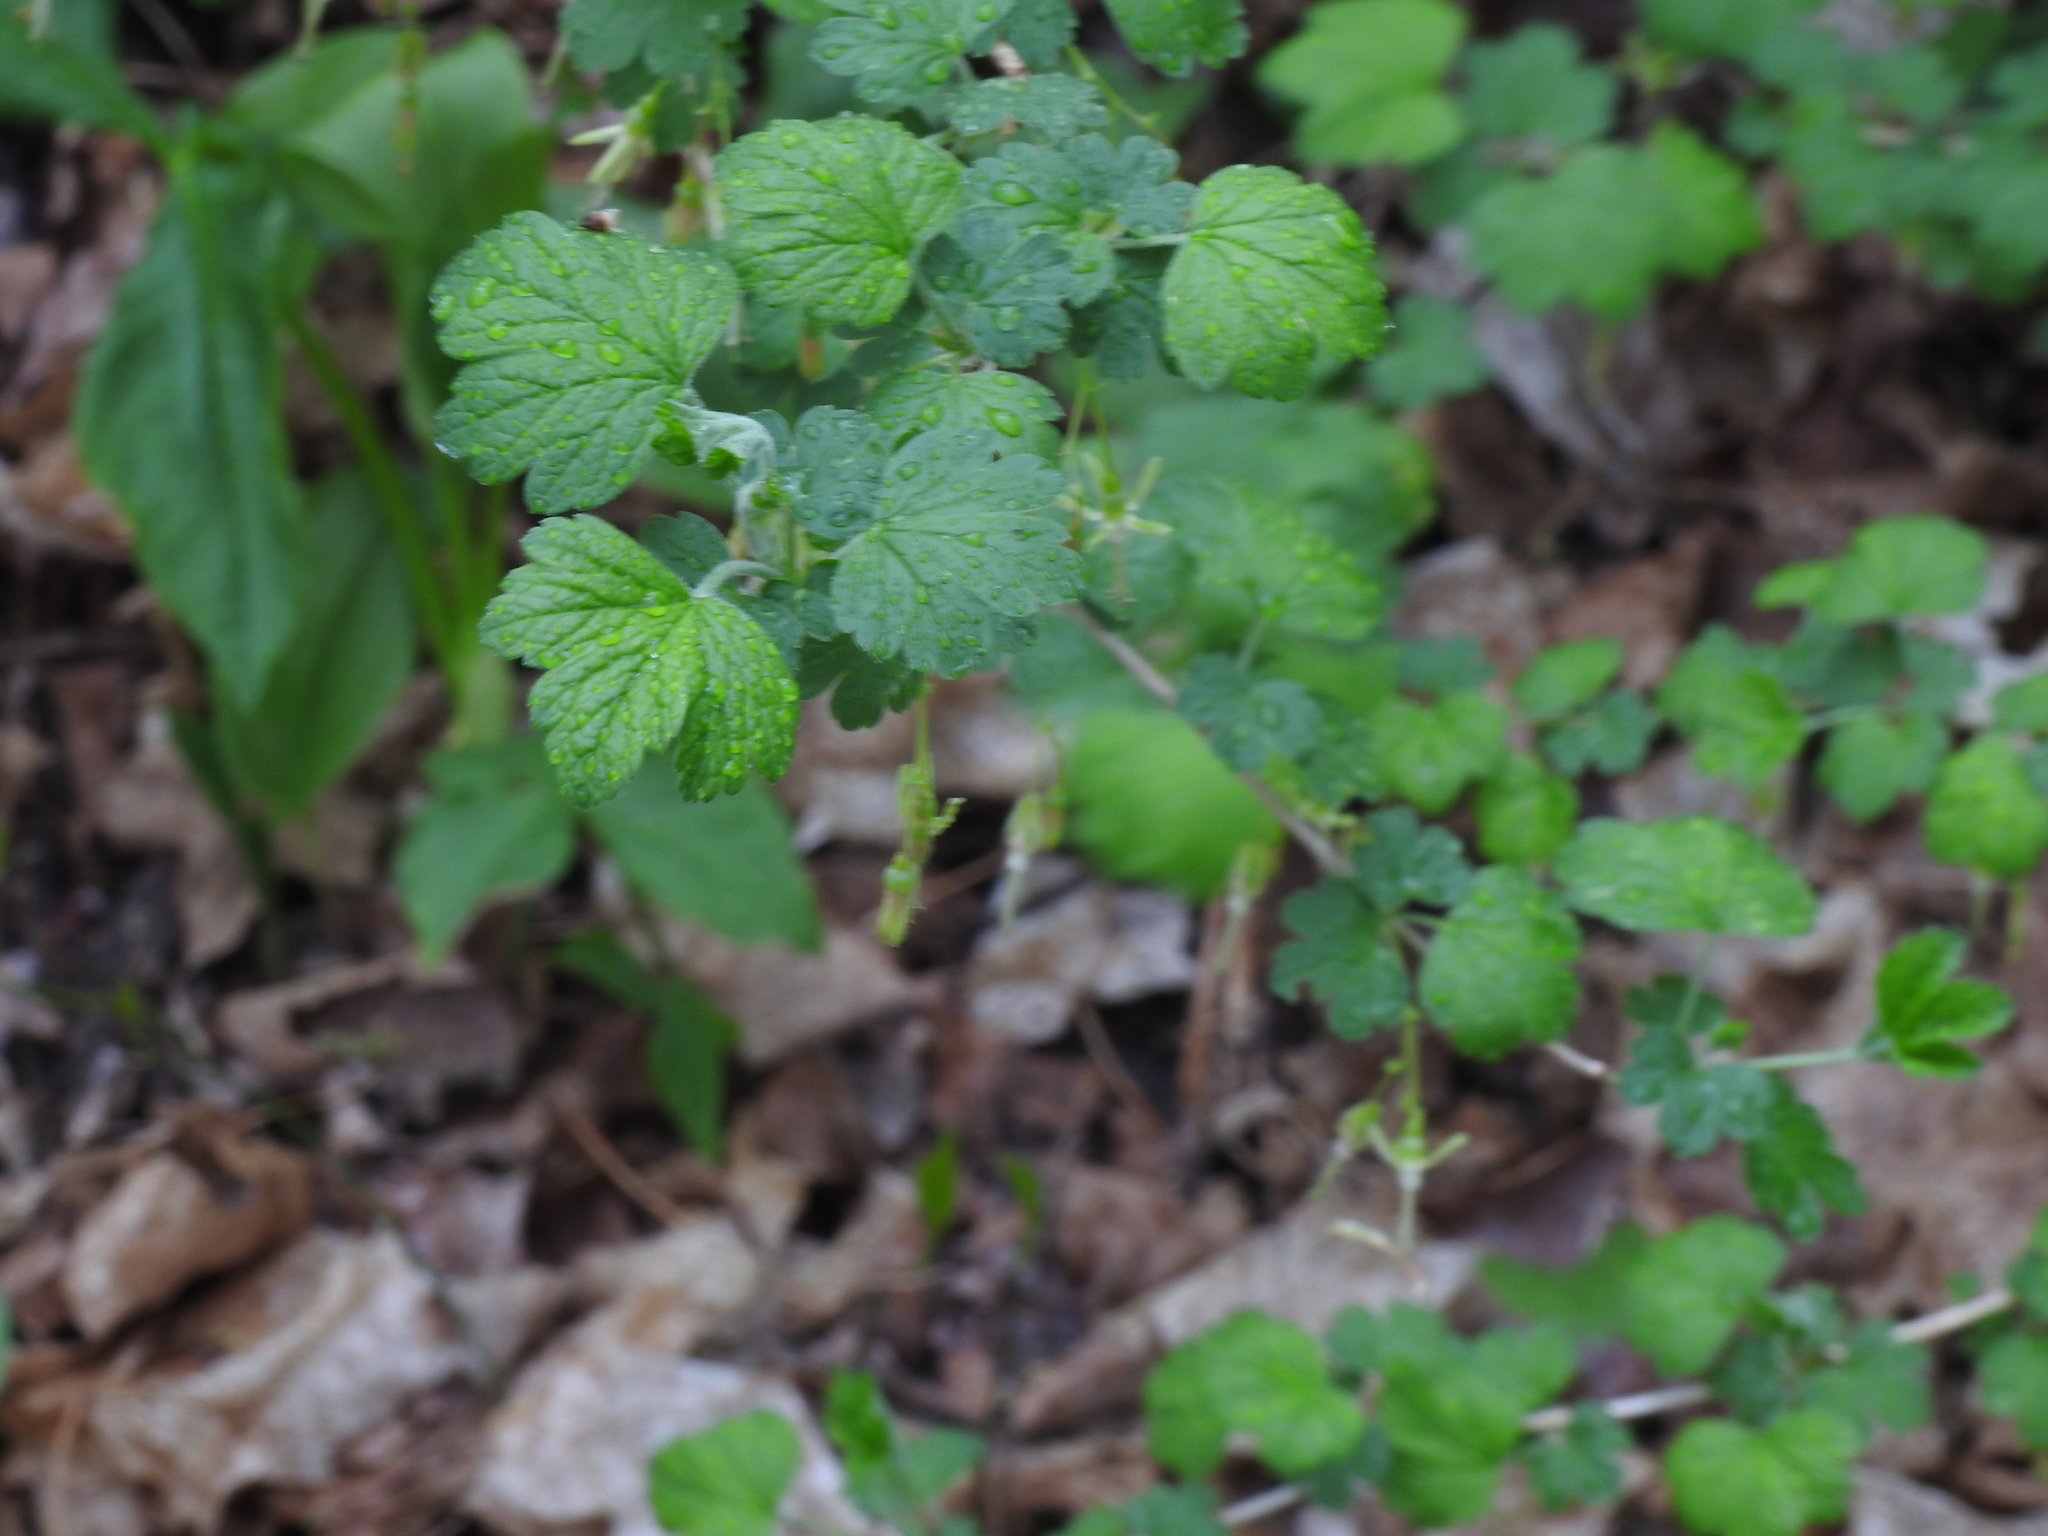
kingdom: Plantae
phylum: Tracheophyta
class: Magnoliopsida
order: Saxifragales
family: Grossulariaceae
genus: Ribes
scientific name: Ribes missouriense
